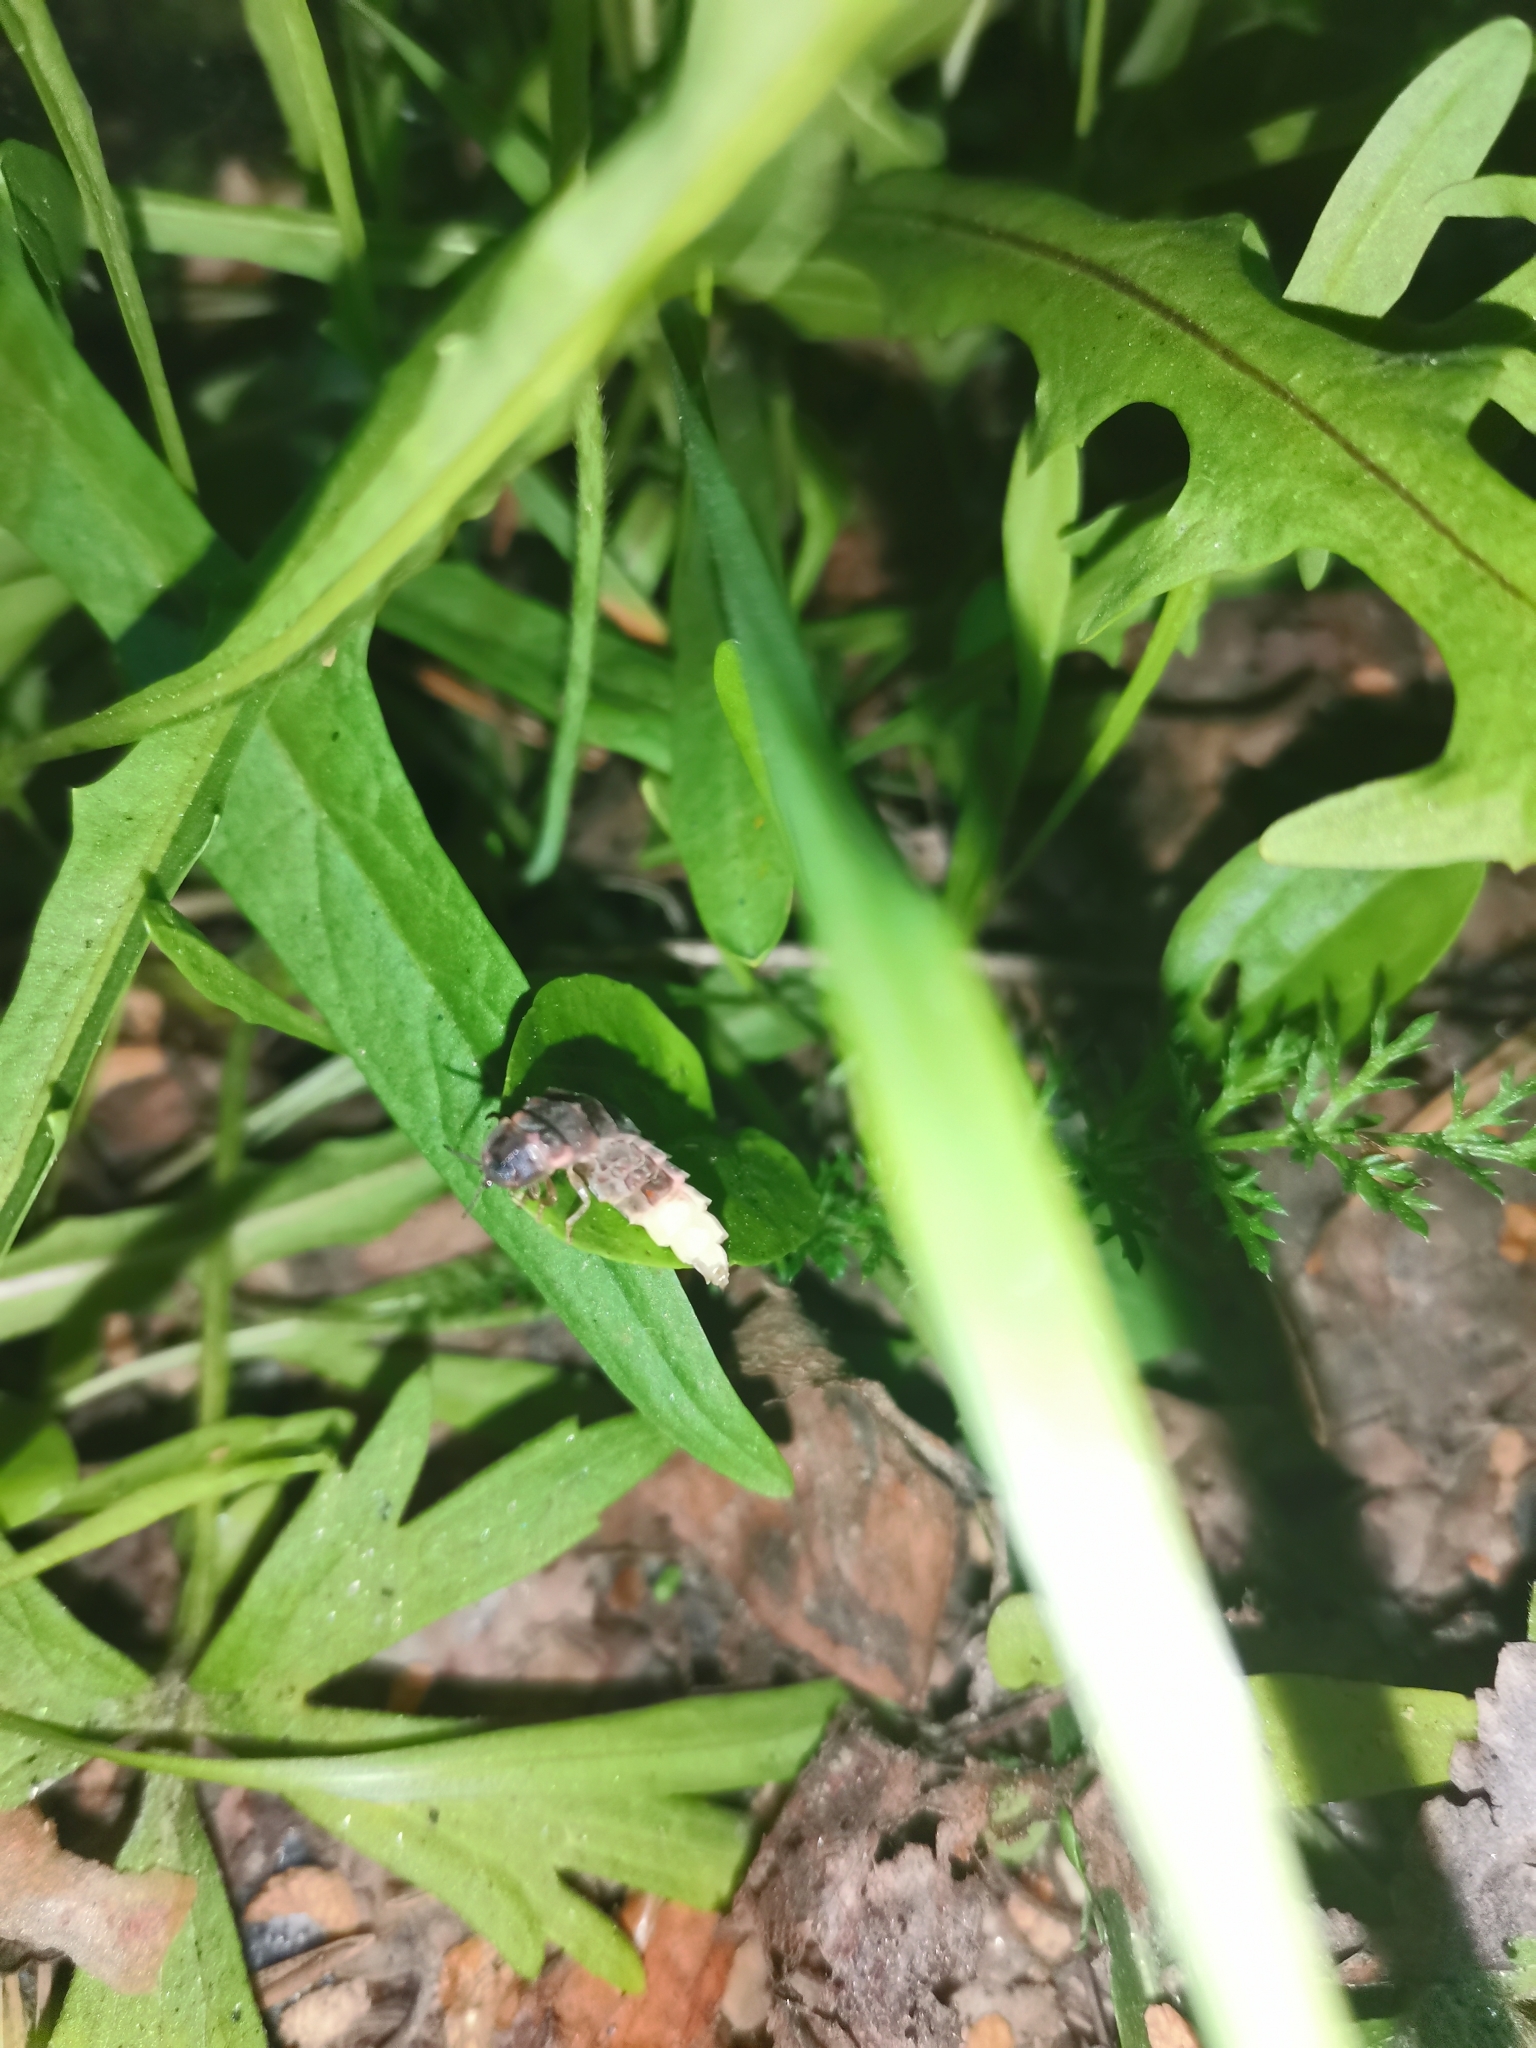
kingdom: Animalia
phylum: Arthropoda
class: Insecta
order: Coleoptera
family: Lampyridae
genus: Lampyris
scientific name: Lampyris noctiluca
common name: Glow-worm
